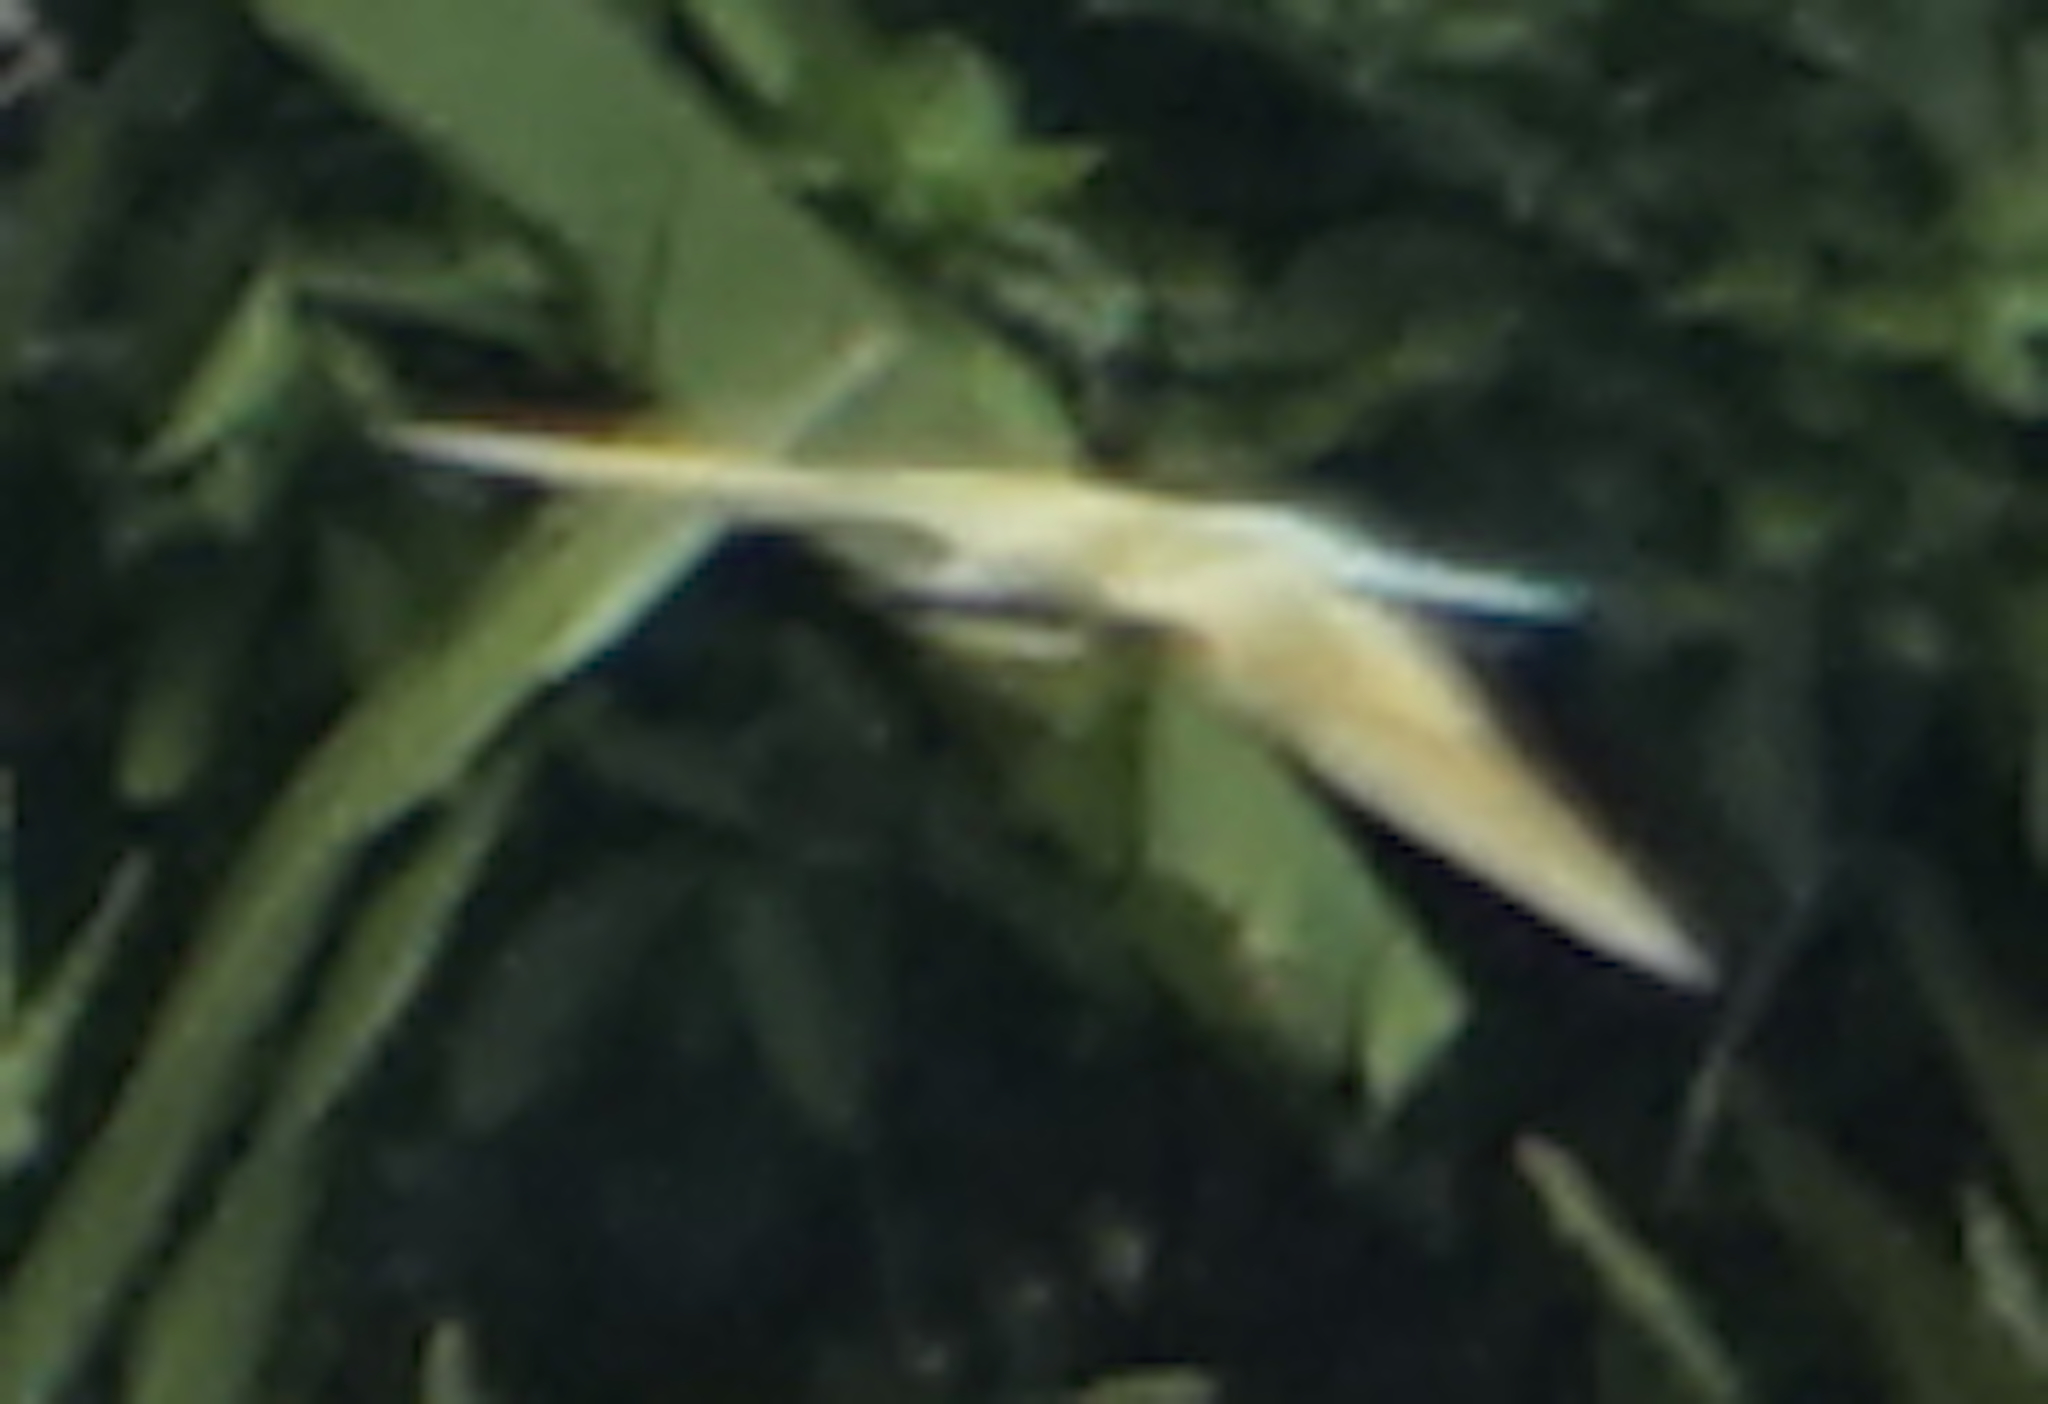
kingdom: Animalia
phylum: Chordata
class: Aves
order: Coraciiformes
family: Meropidae
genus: Merops
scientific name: Merops philippinus
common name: Blue-tailed bee-eater
